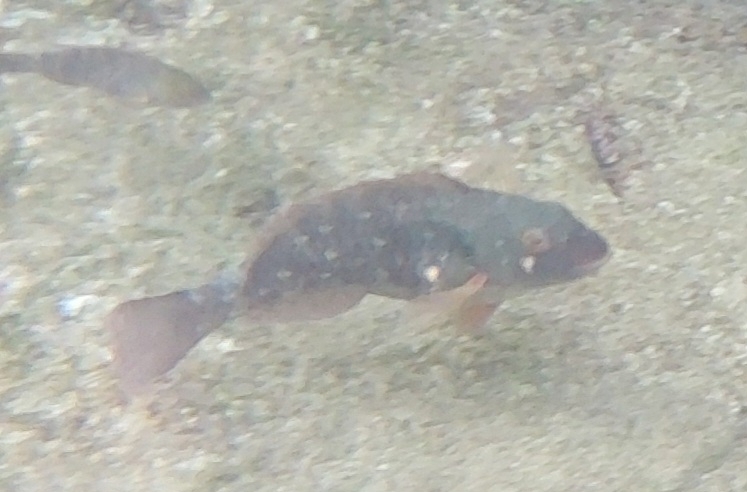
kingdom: Animalia
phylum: Chordata
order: Perciformes
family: Scaridae
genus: Sparisoma
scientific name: Sparisoma cretense
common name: Parrotfish
